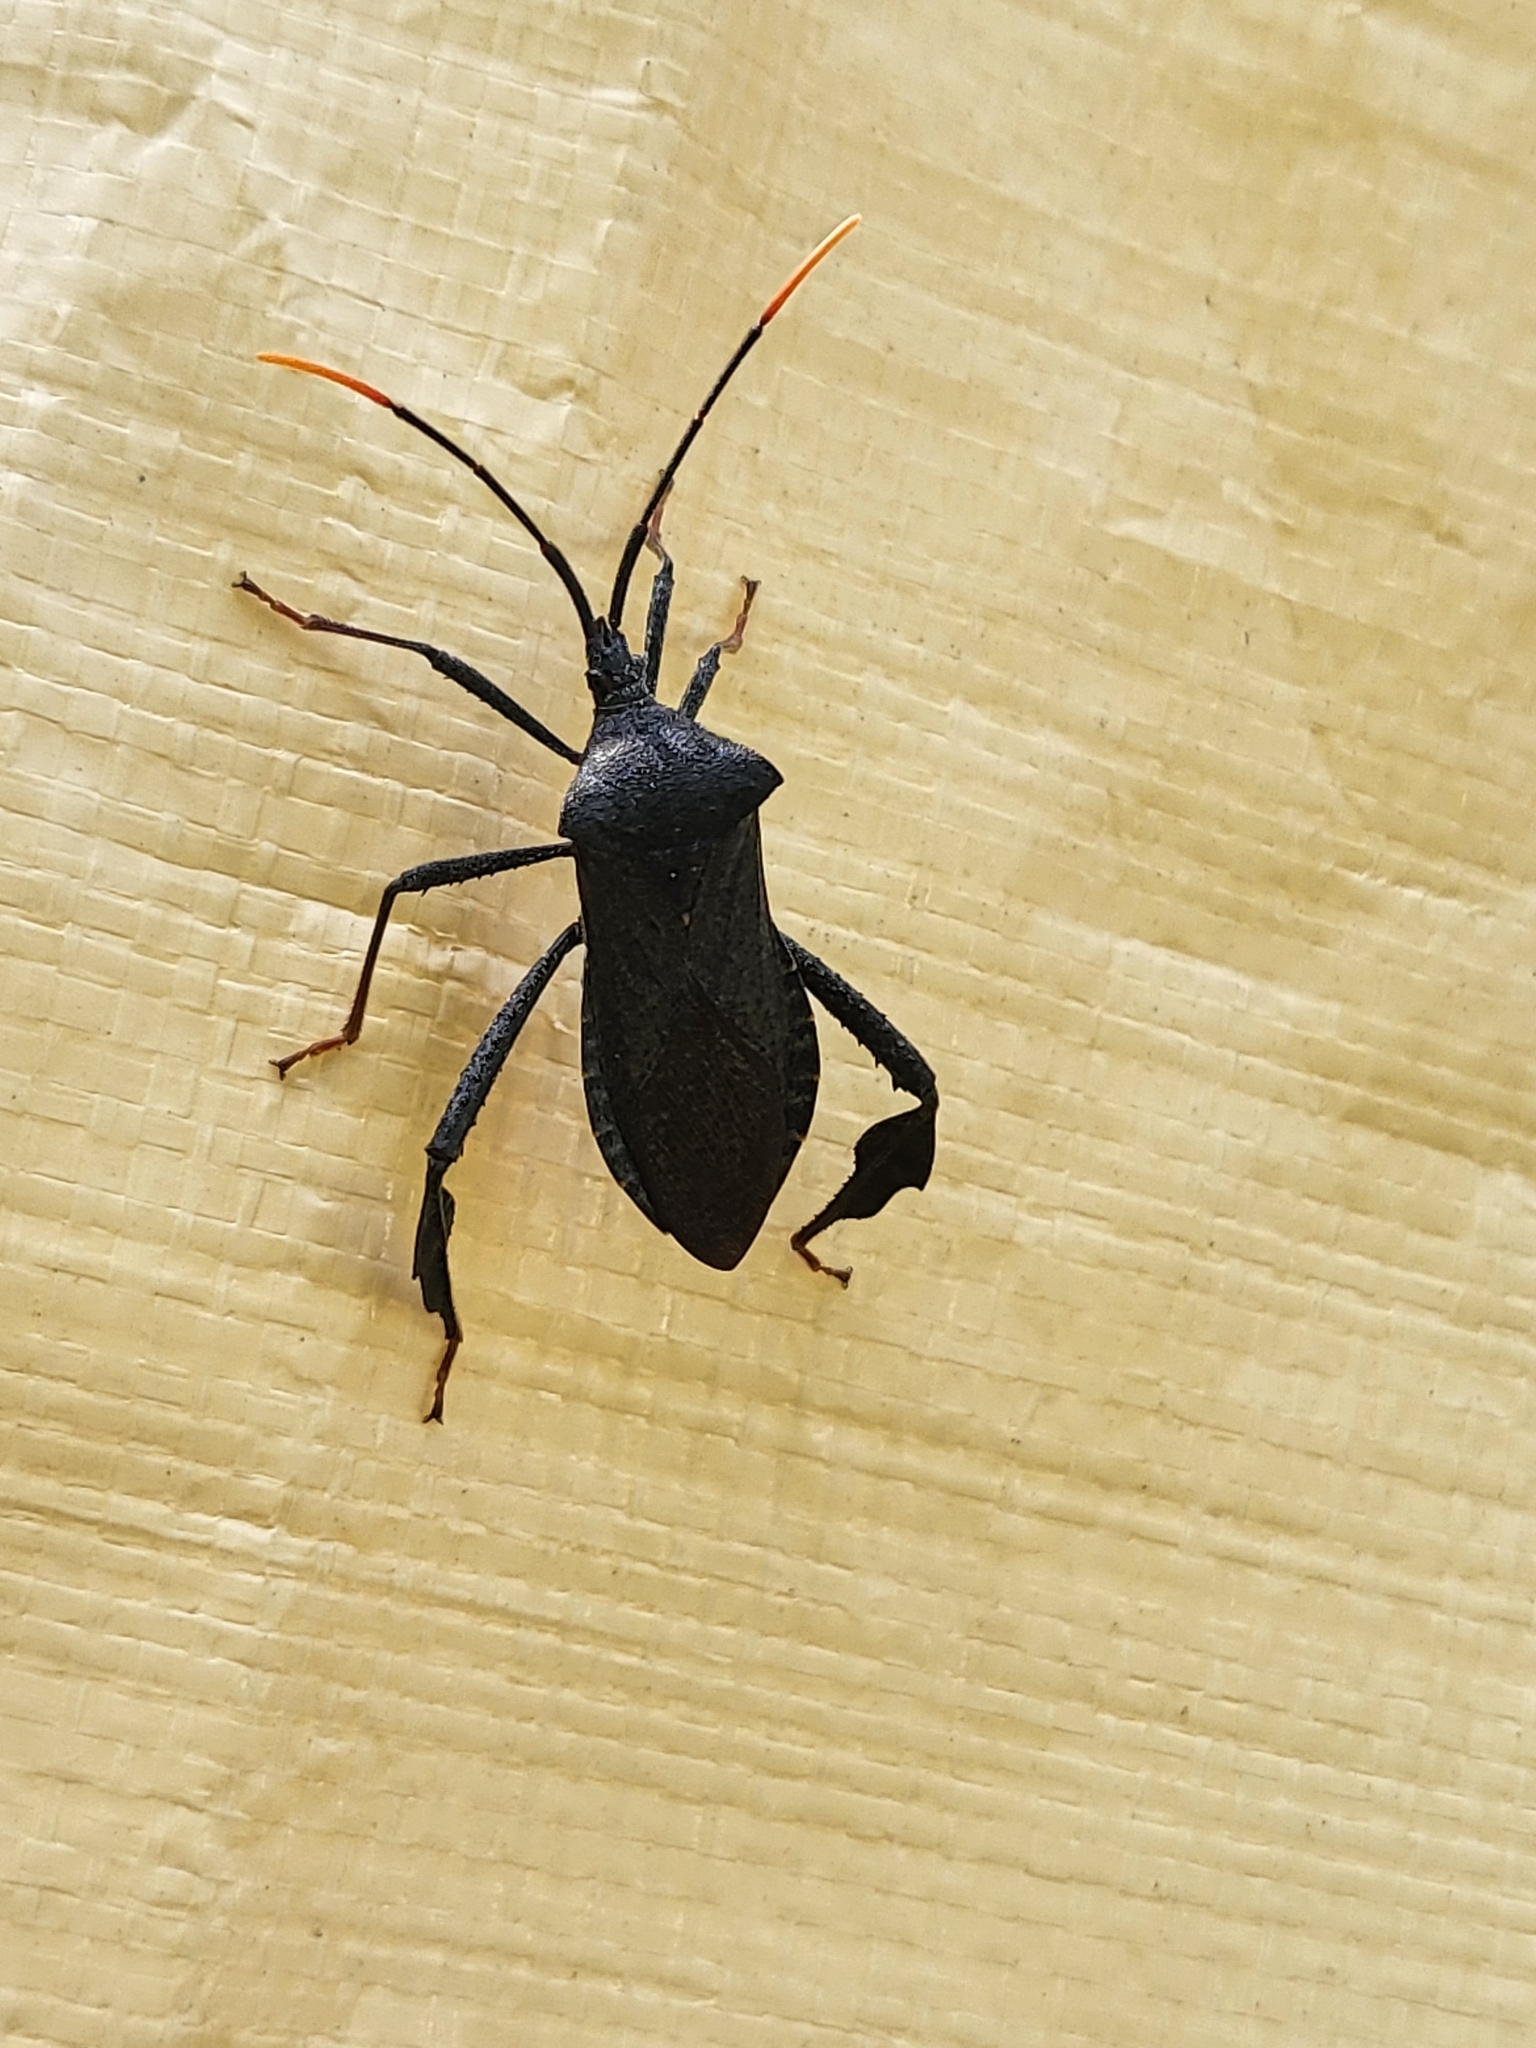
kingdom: Animalia
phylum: Arthropoda
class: Insecta
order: Hemiptera
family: Coreidae
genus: Acanthocephala
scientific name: Acanthocephala terminalis
